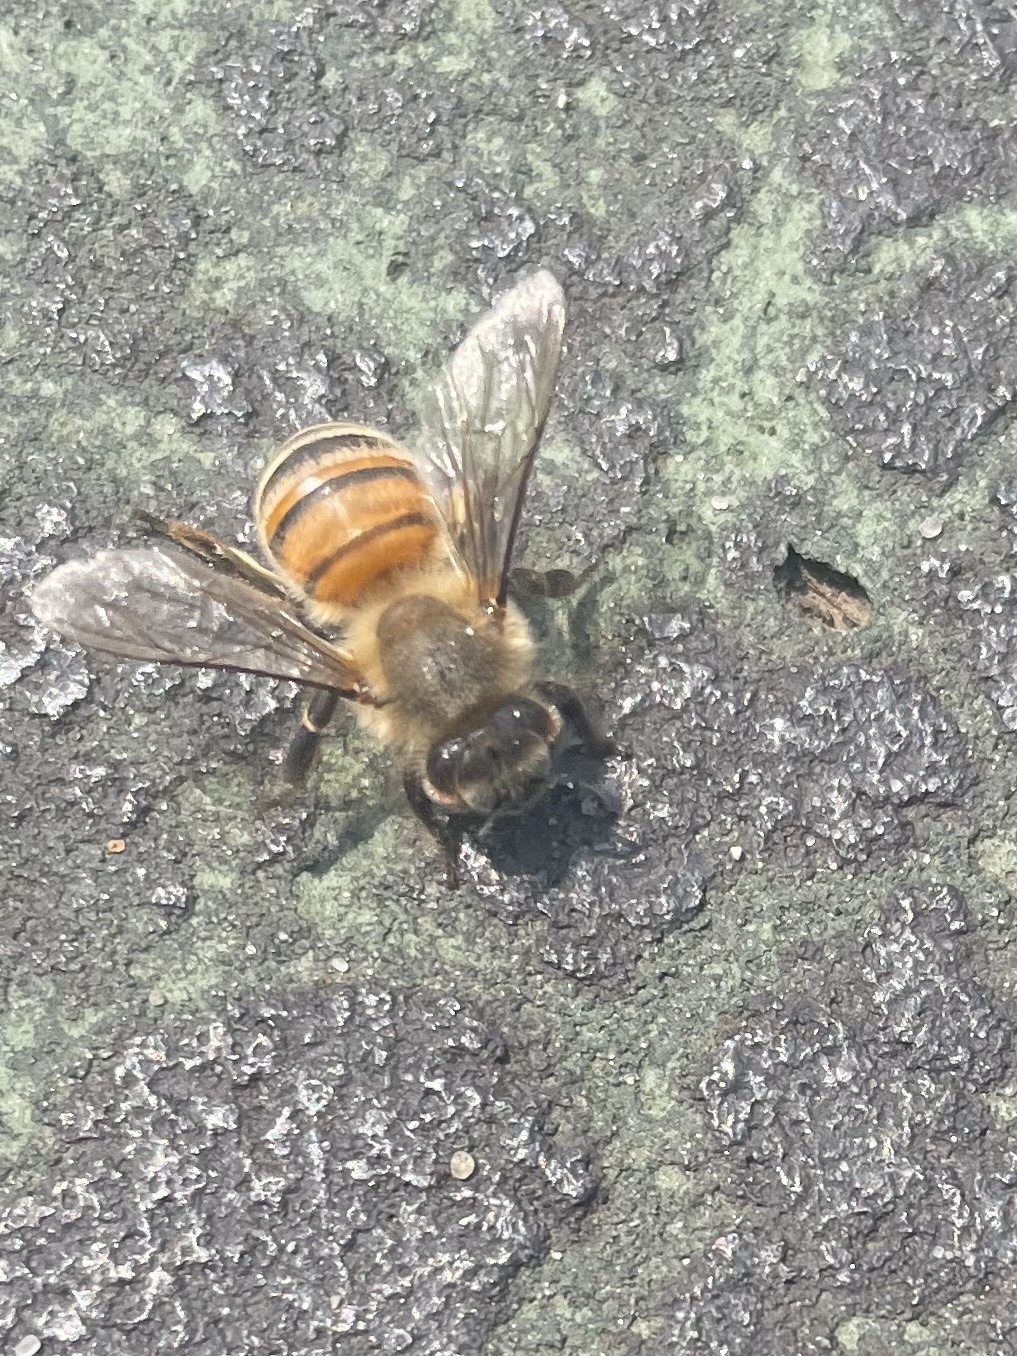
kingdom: Animalia
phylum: Arthropoda
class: Insecta
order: Hymenoptera
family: Apidae
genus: Apis
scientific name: Apis mellifera
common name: Honey bee
